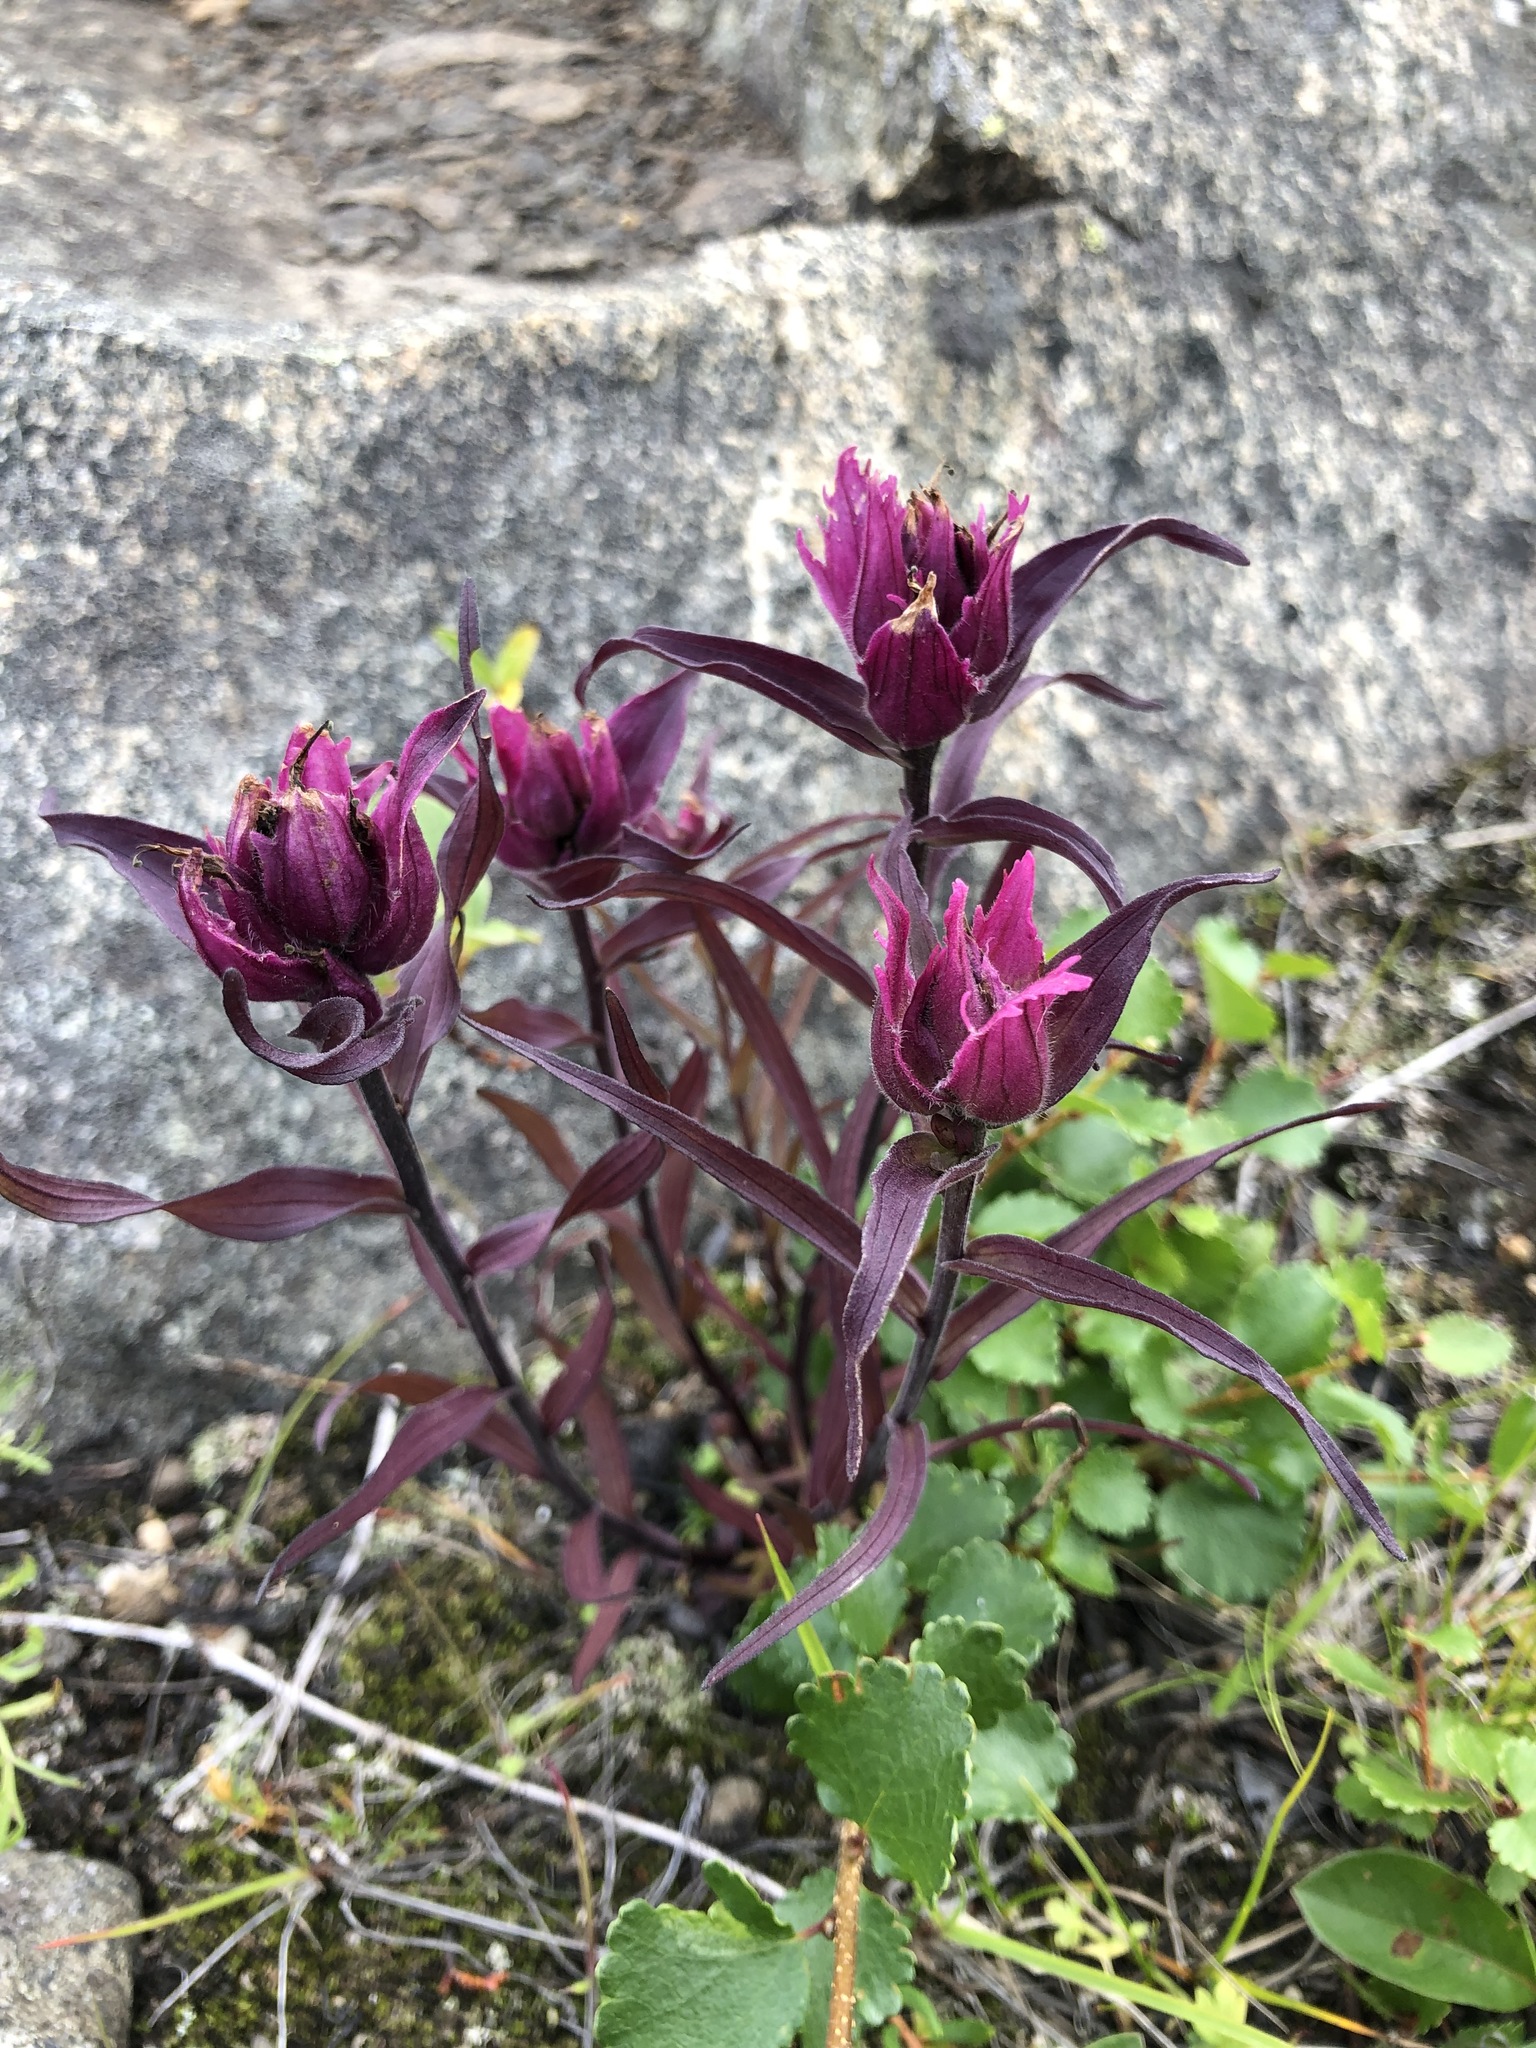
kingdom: Plantae
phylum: Tracheophyta
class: Magnoliopsida
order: Lamiales
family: Orobanchaceae
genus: Castilleja
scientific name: Castilleja arctica
